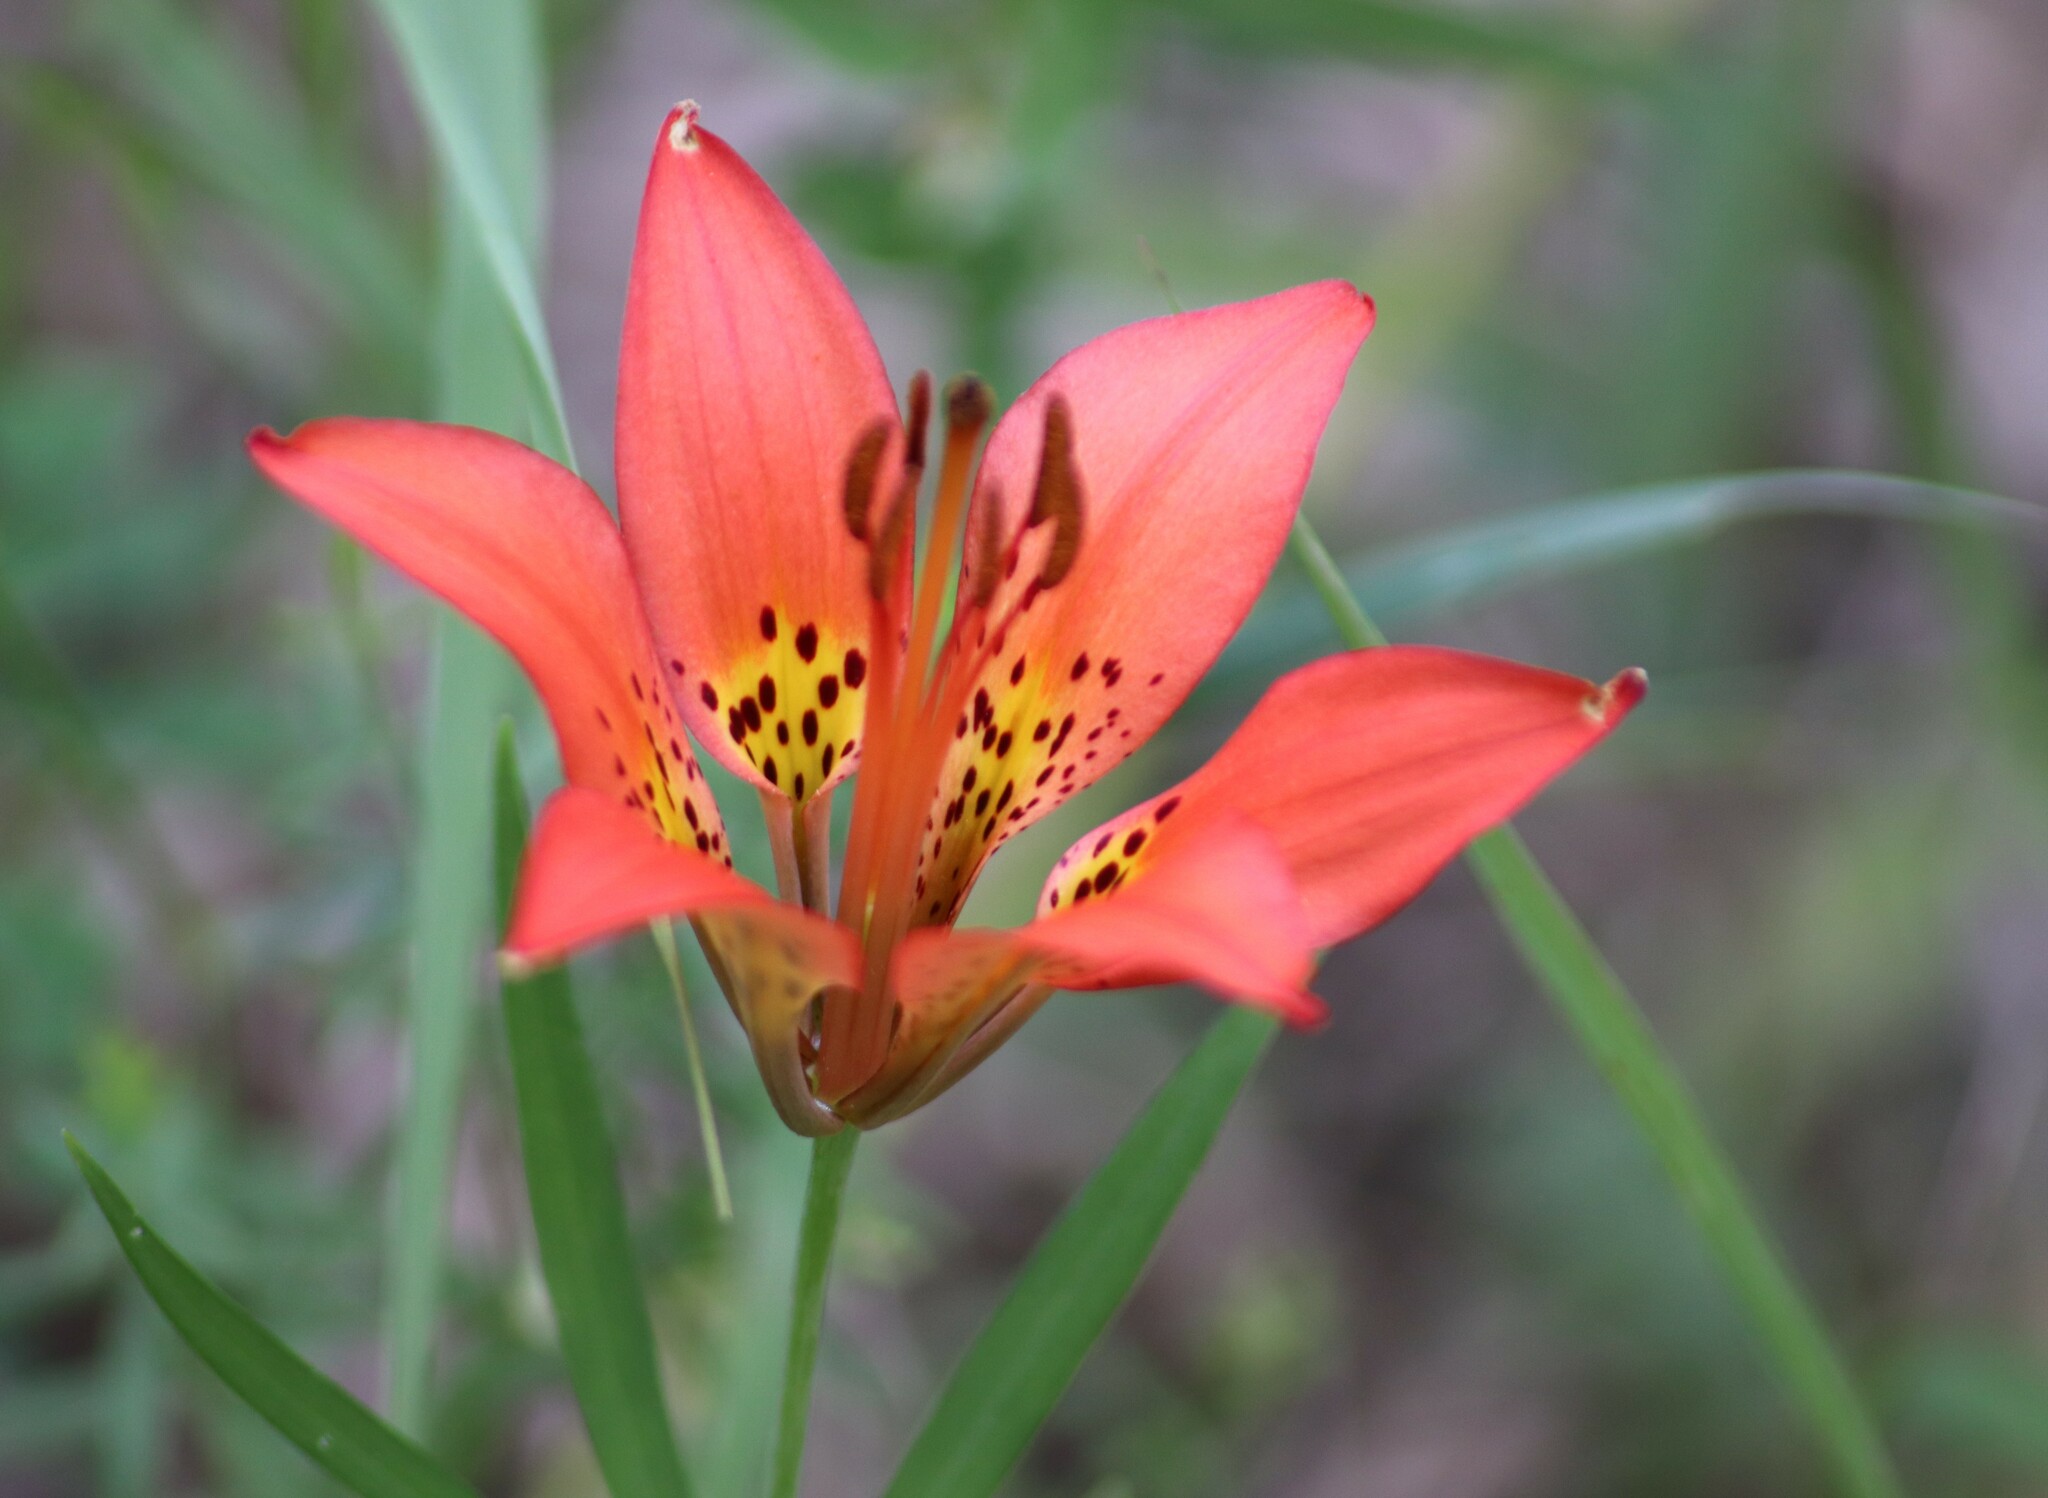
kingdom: Plantae
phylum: Tracheophyta
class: Liliopsida
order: Liliales
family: Liliaceae
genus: Lilium
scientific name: Lilium philadelphicum
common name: Red lily
